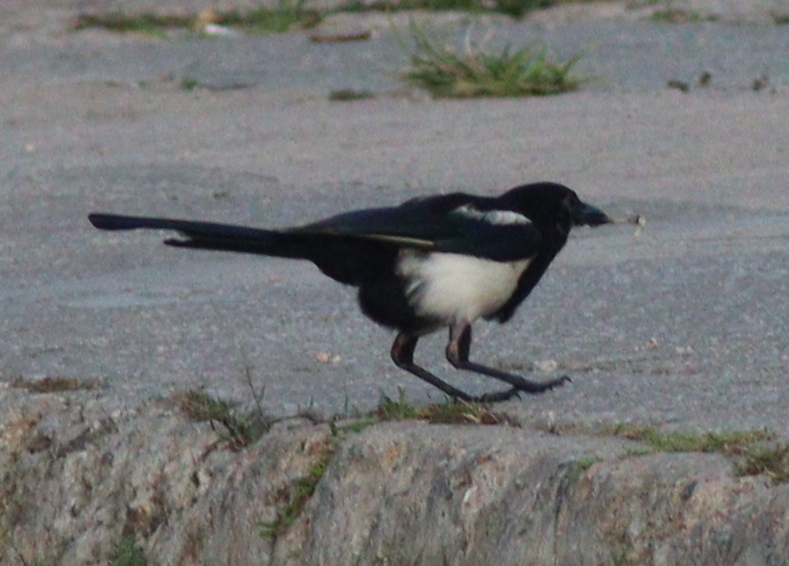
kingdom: Animalia
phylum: Chordata
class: Aves
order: Passeriformes
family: Corvidae
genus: Pica
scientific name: Pica serica
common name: Oriental magpie
